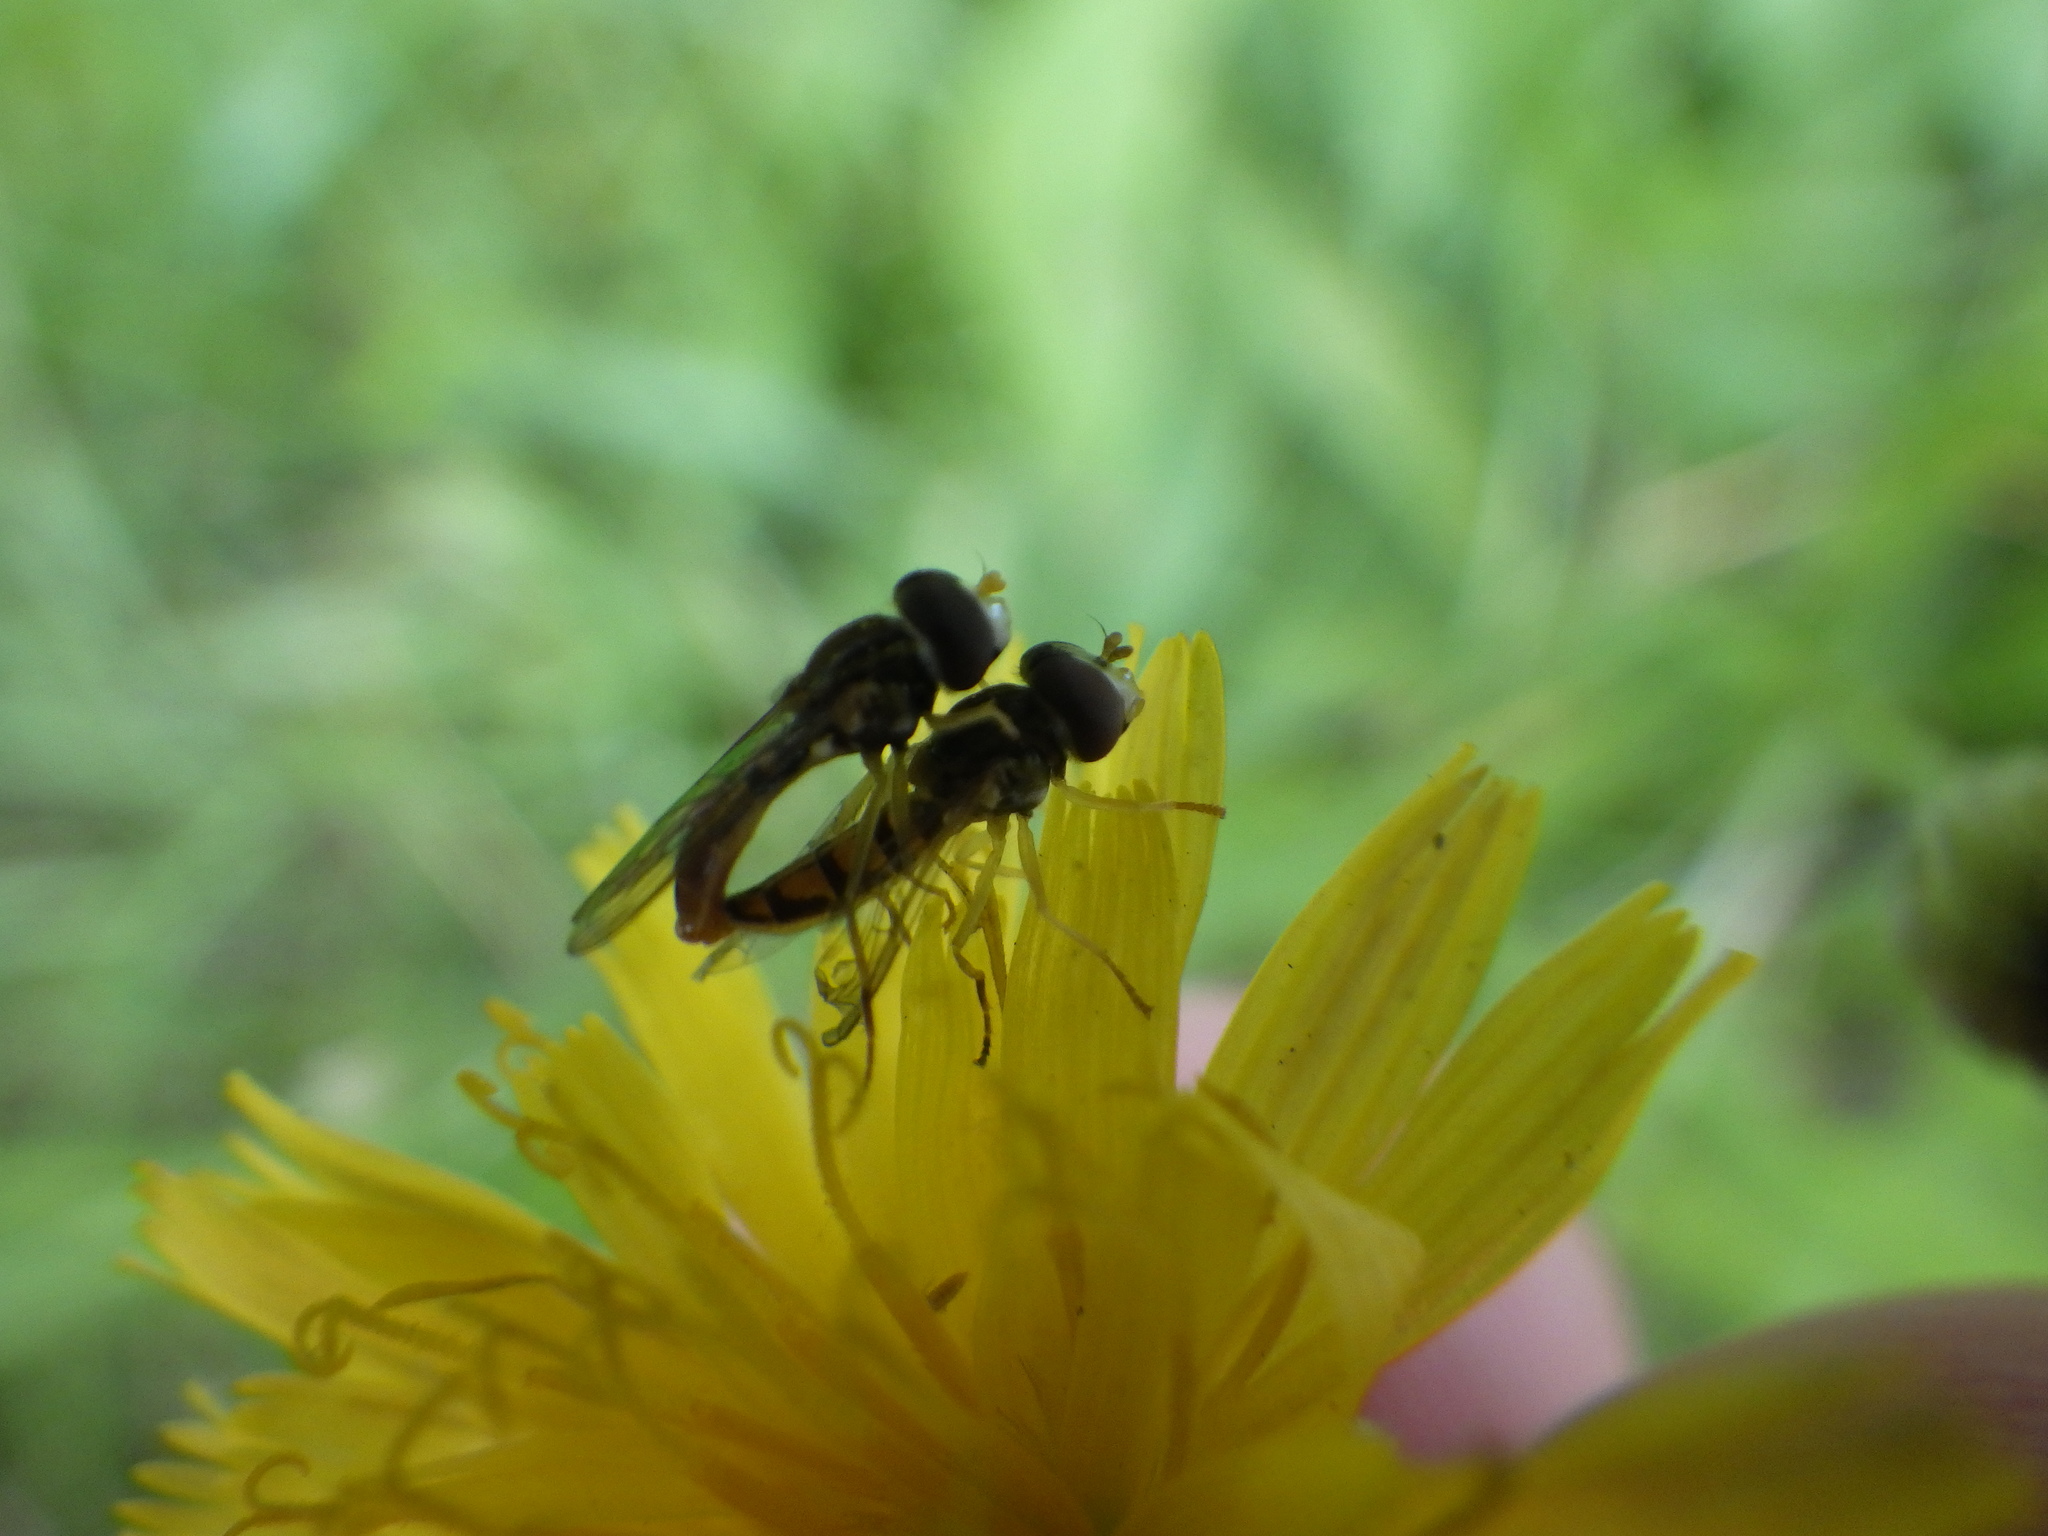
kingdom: Animalia
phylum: Arthropoda
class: Insecta
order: Diptera
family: Syrphidae
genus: Toxomerus
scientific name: Toxomerus marginatus
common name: Syrphid fly
